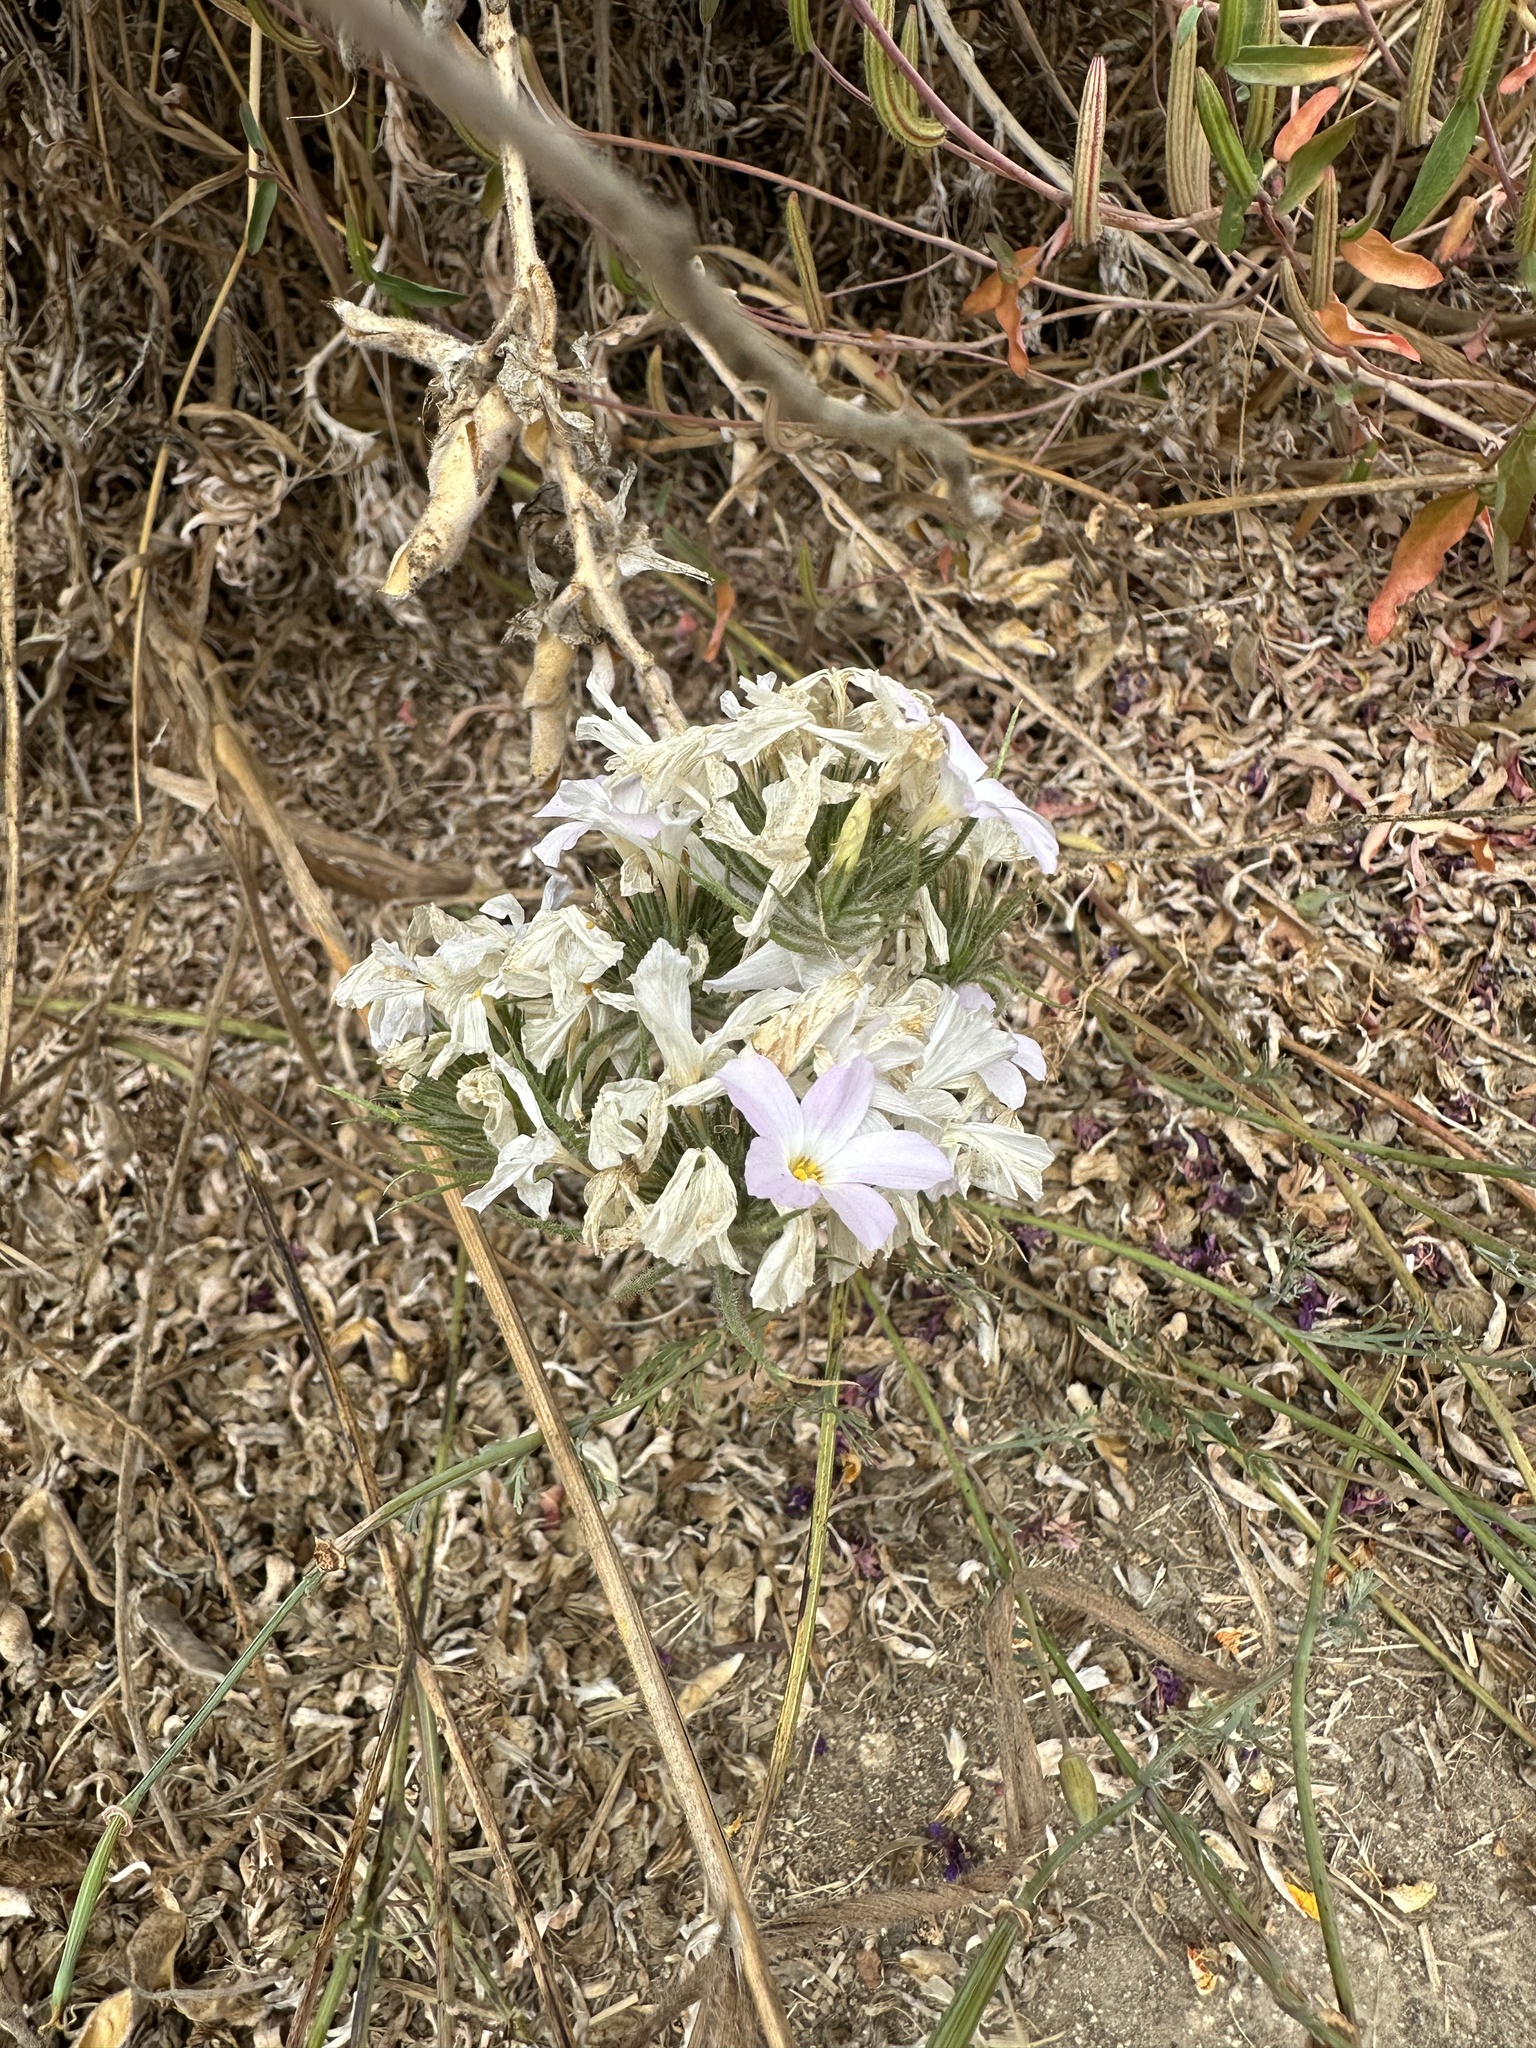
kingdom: Plantae
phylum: Tracheophyta
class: Magnoliopsida
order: Ericales
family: Polemoniaceae
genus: Leptosiphon
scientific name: Leptosiphon grandiflorus
